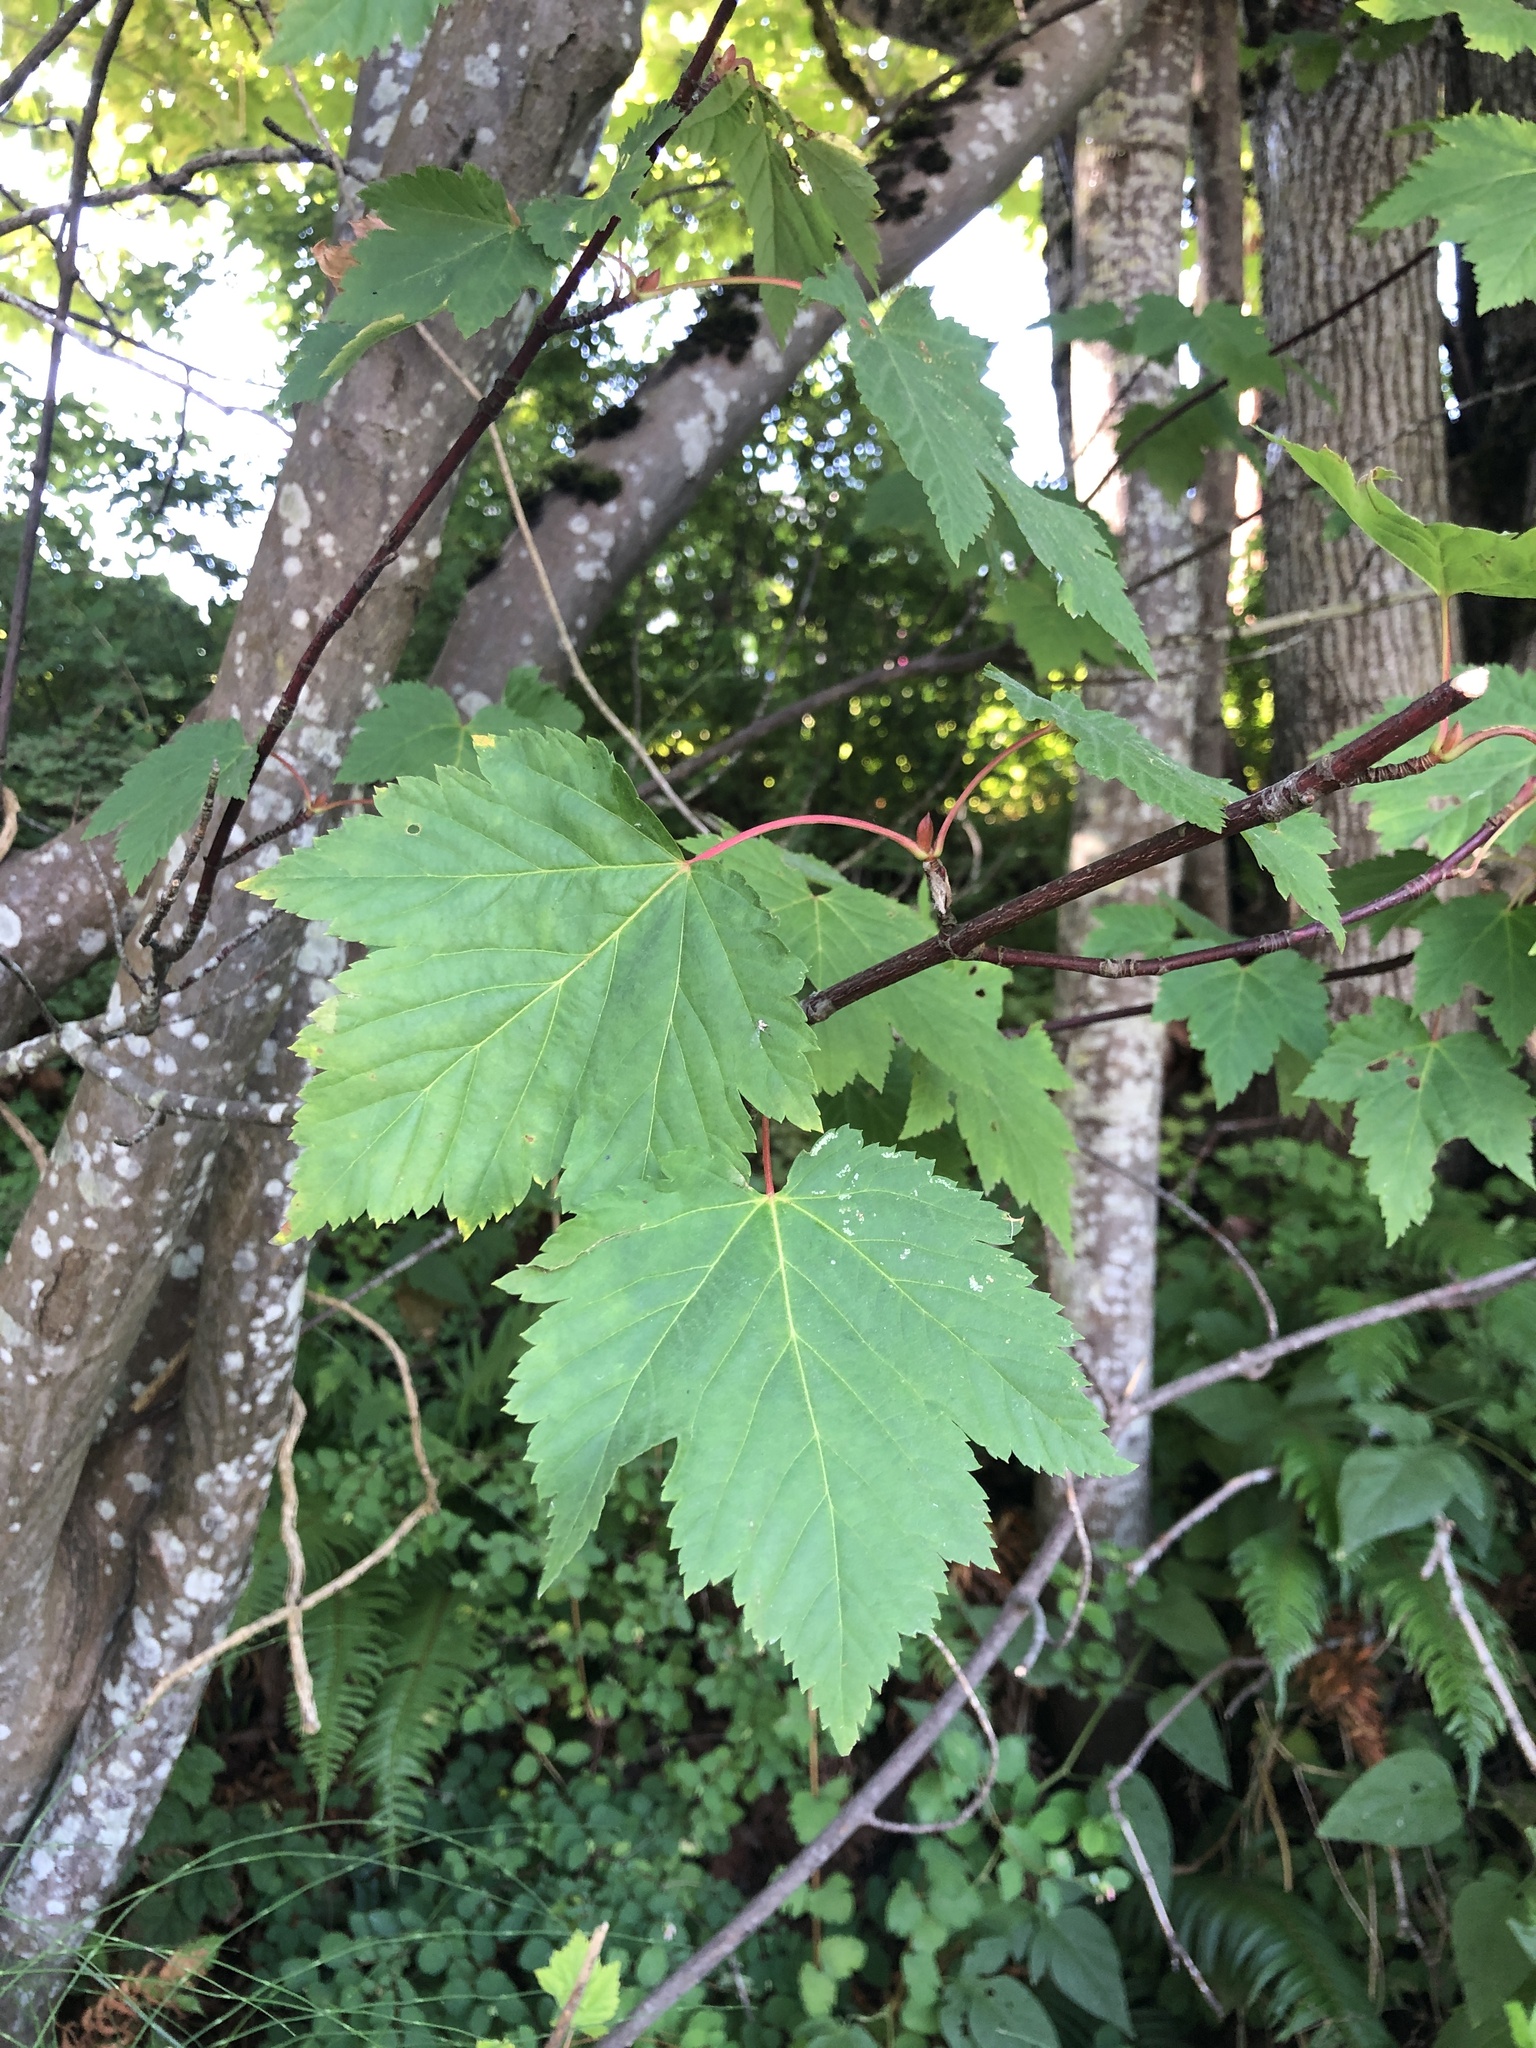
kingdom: Plantae
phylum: Tracheophyta
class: Magnoliopsida
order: Sapindales
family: Sapindaceae
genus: Acer
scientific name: Acer glabrum
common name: Rocky mountain maple
